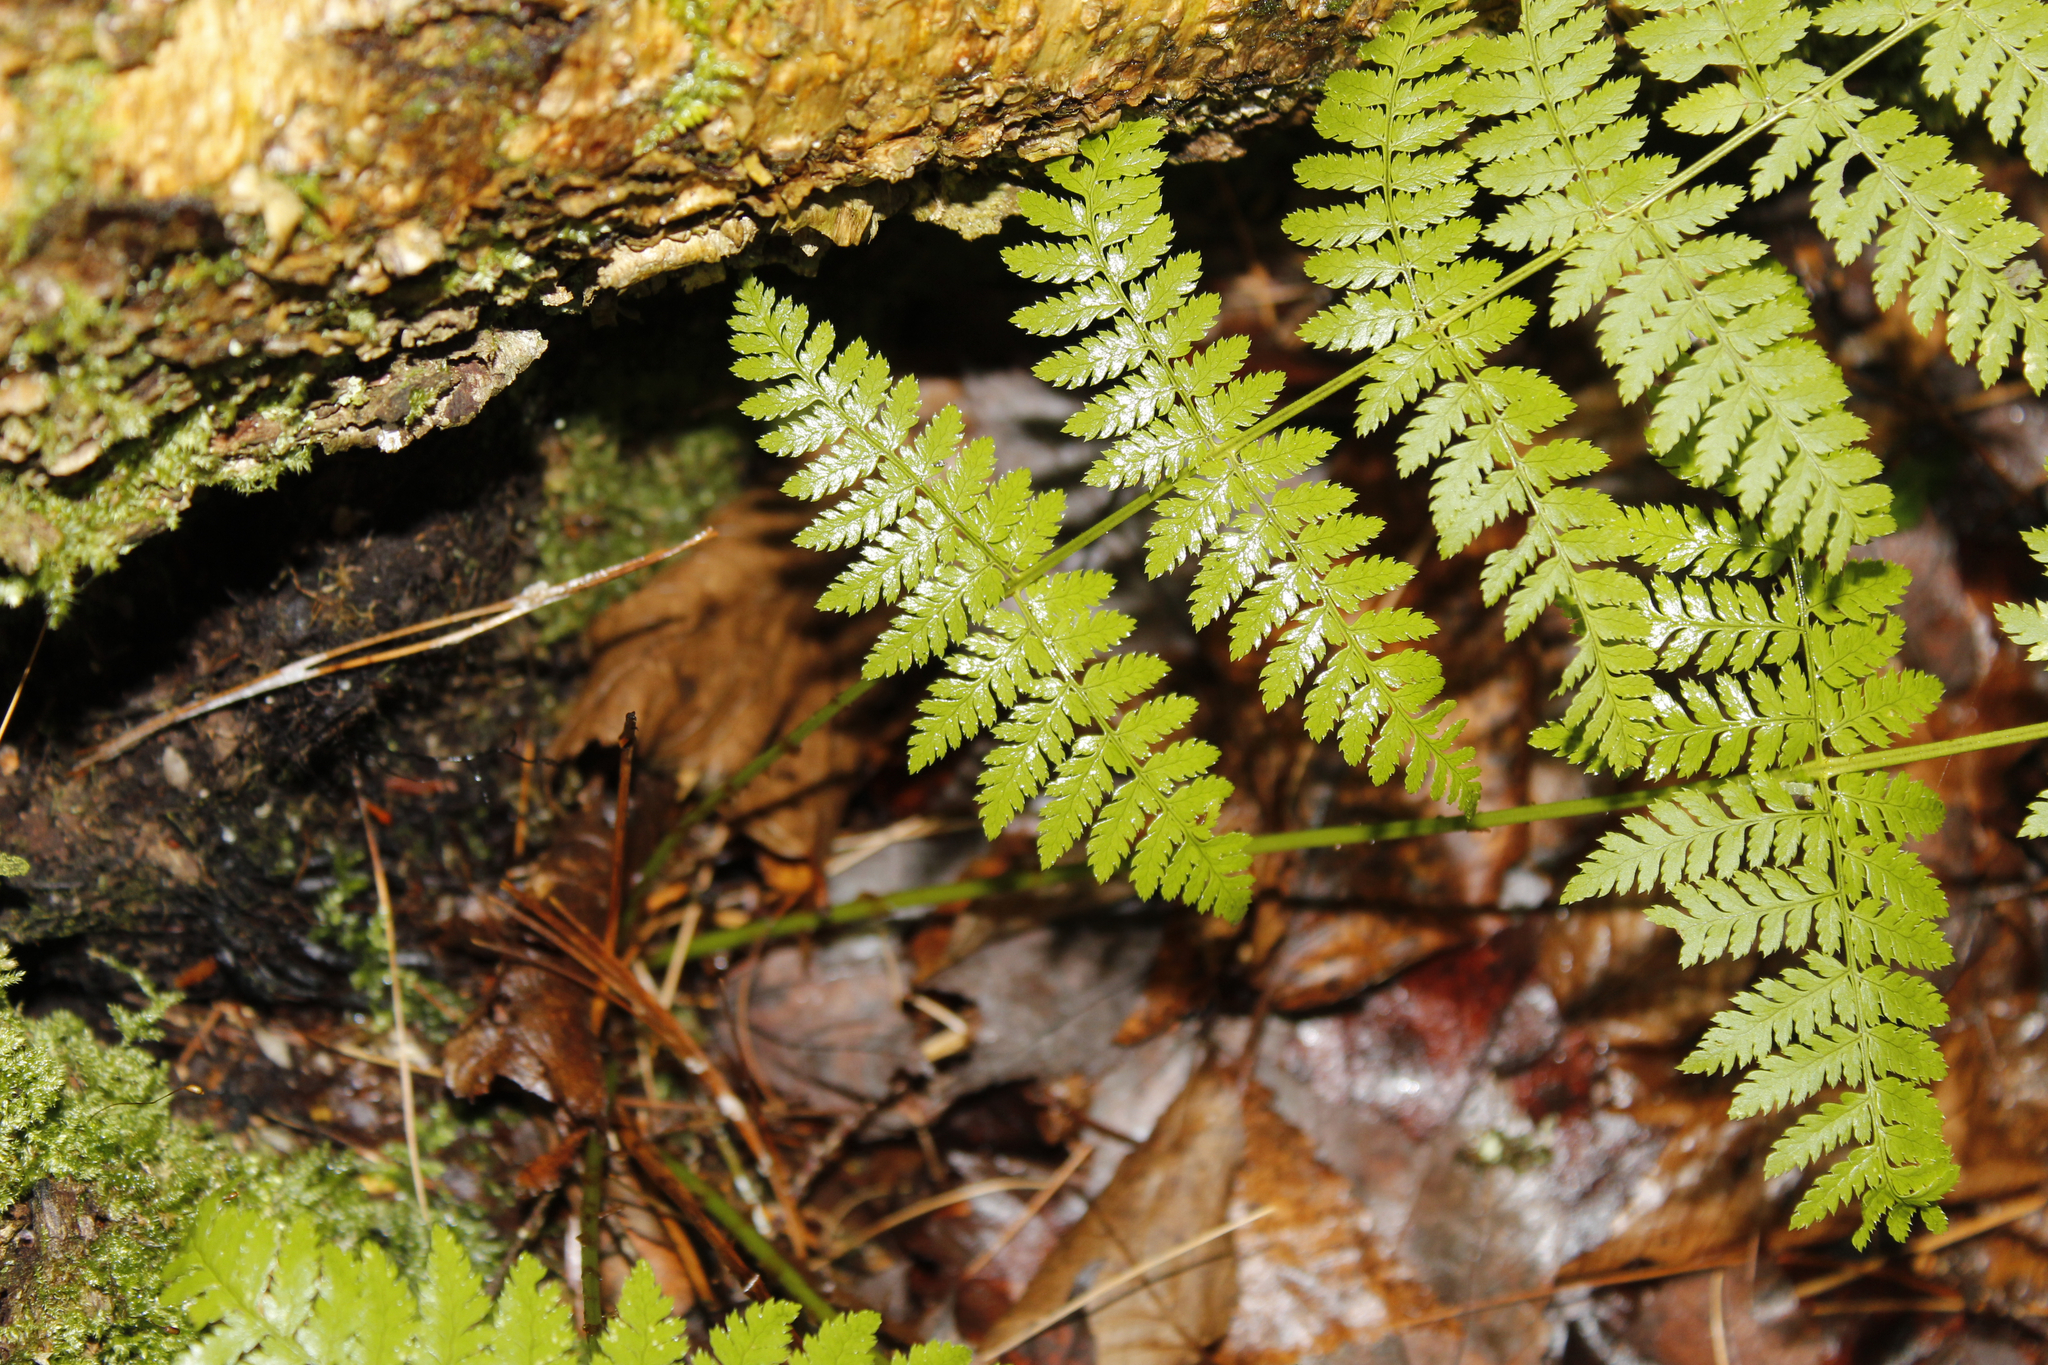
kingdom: Plantae
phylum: Tracheophyta
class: Polypodiopsida
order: Polypodiales
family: Dryopteridaceae
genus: Dryopteris
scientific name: Dryopteris intermedia
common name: Evergreen wood fern
